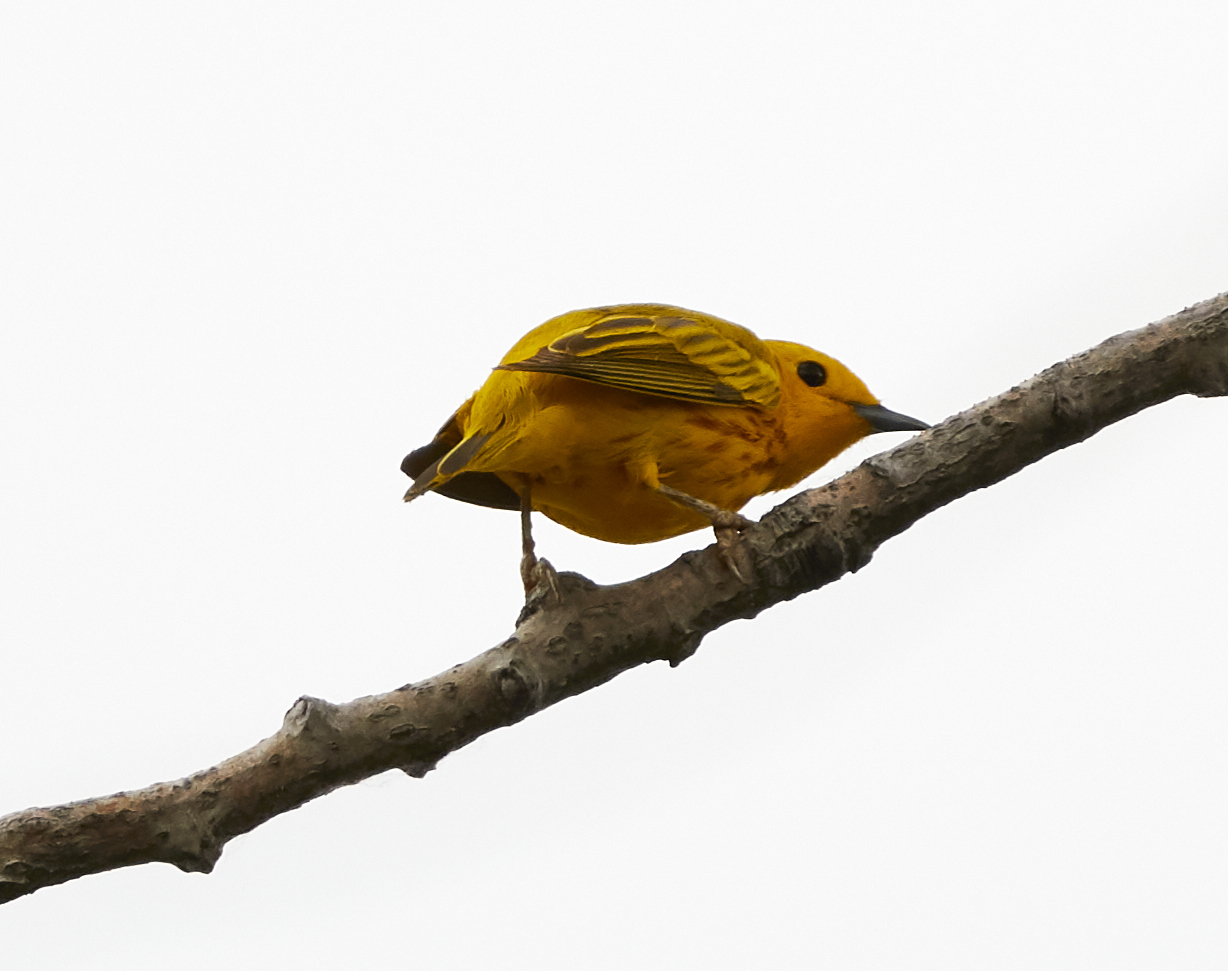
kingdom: Animalia
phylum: Chordata
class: Aves
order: Passeriformes
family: Parulidae
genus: Setophaga
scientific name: Setophaga petechia
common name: Yellow warbler
